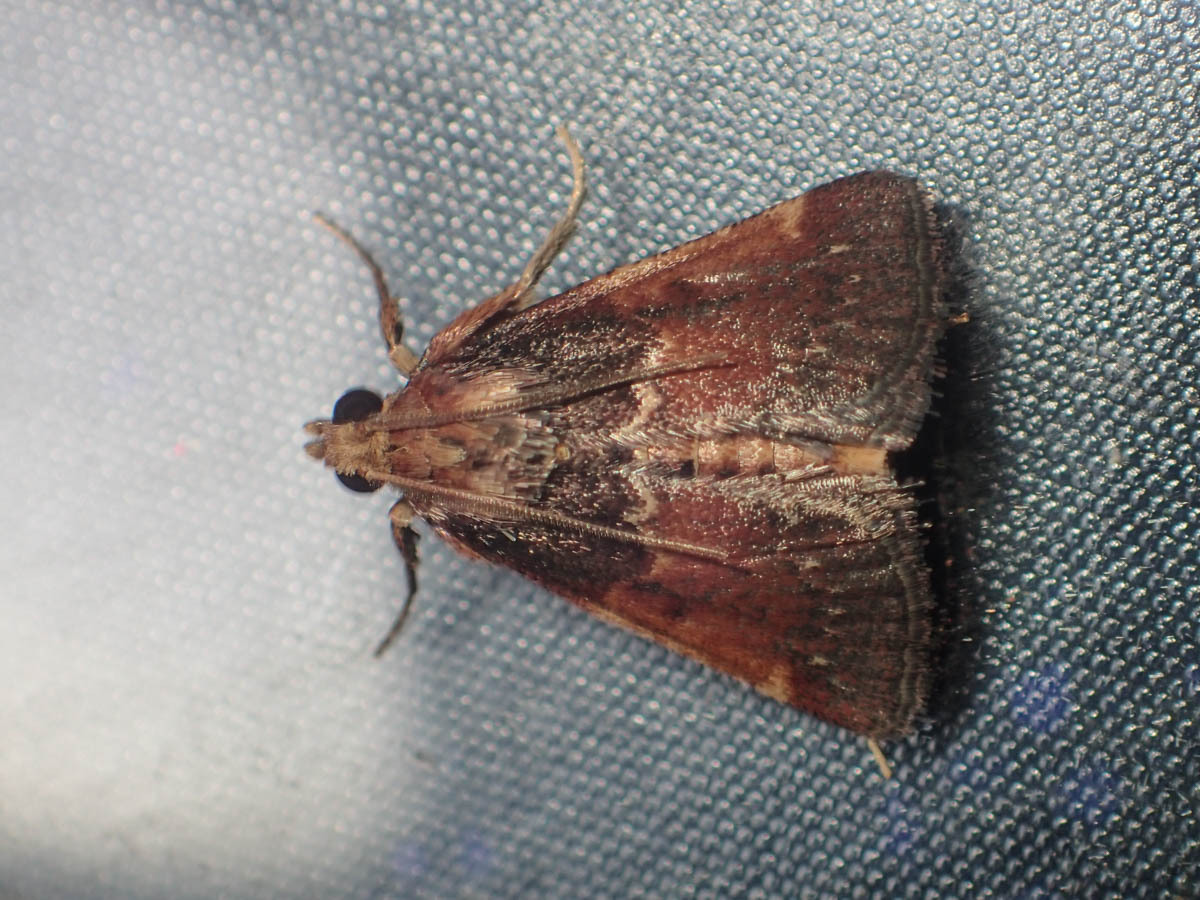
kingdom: Animalia
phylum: Arthropoda
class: Insecta
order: Lepidoptera
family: Pyralidae
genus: Hypanchyla
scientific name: Hypanchyla
